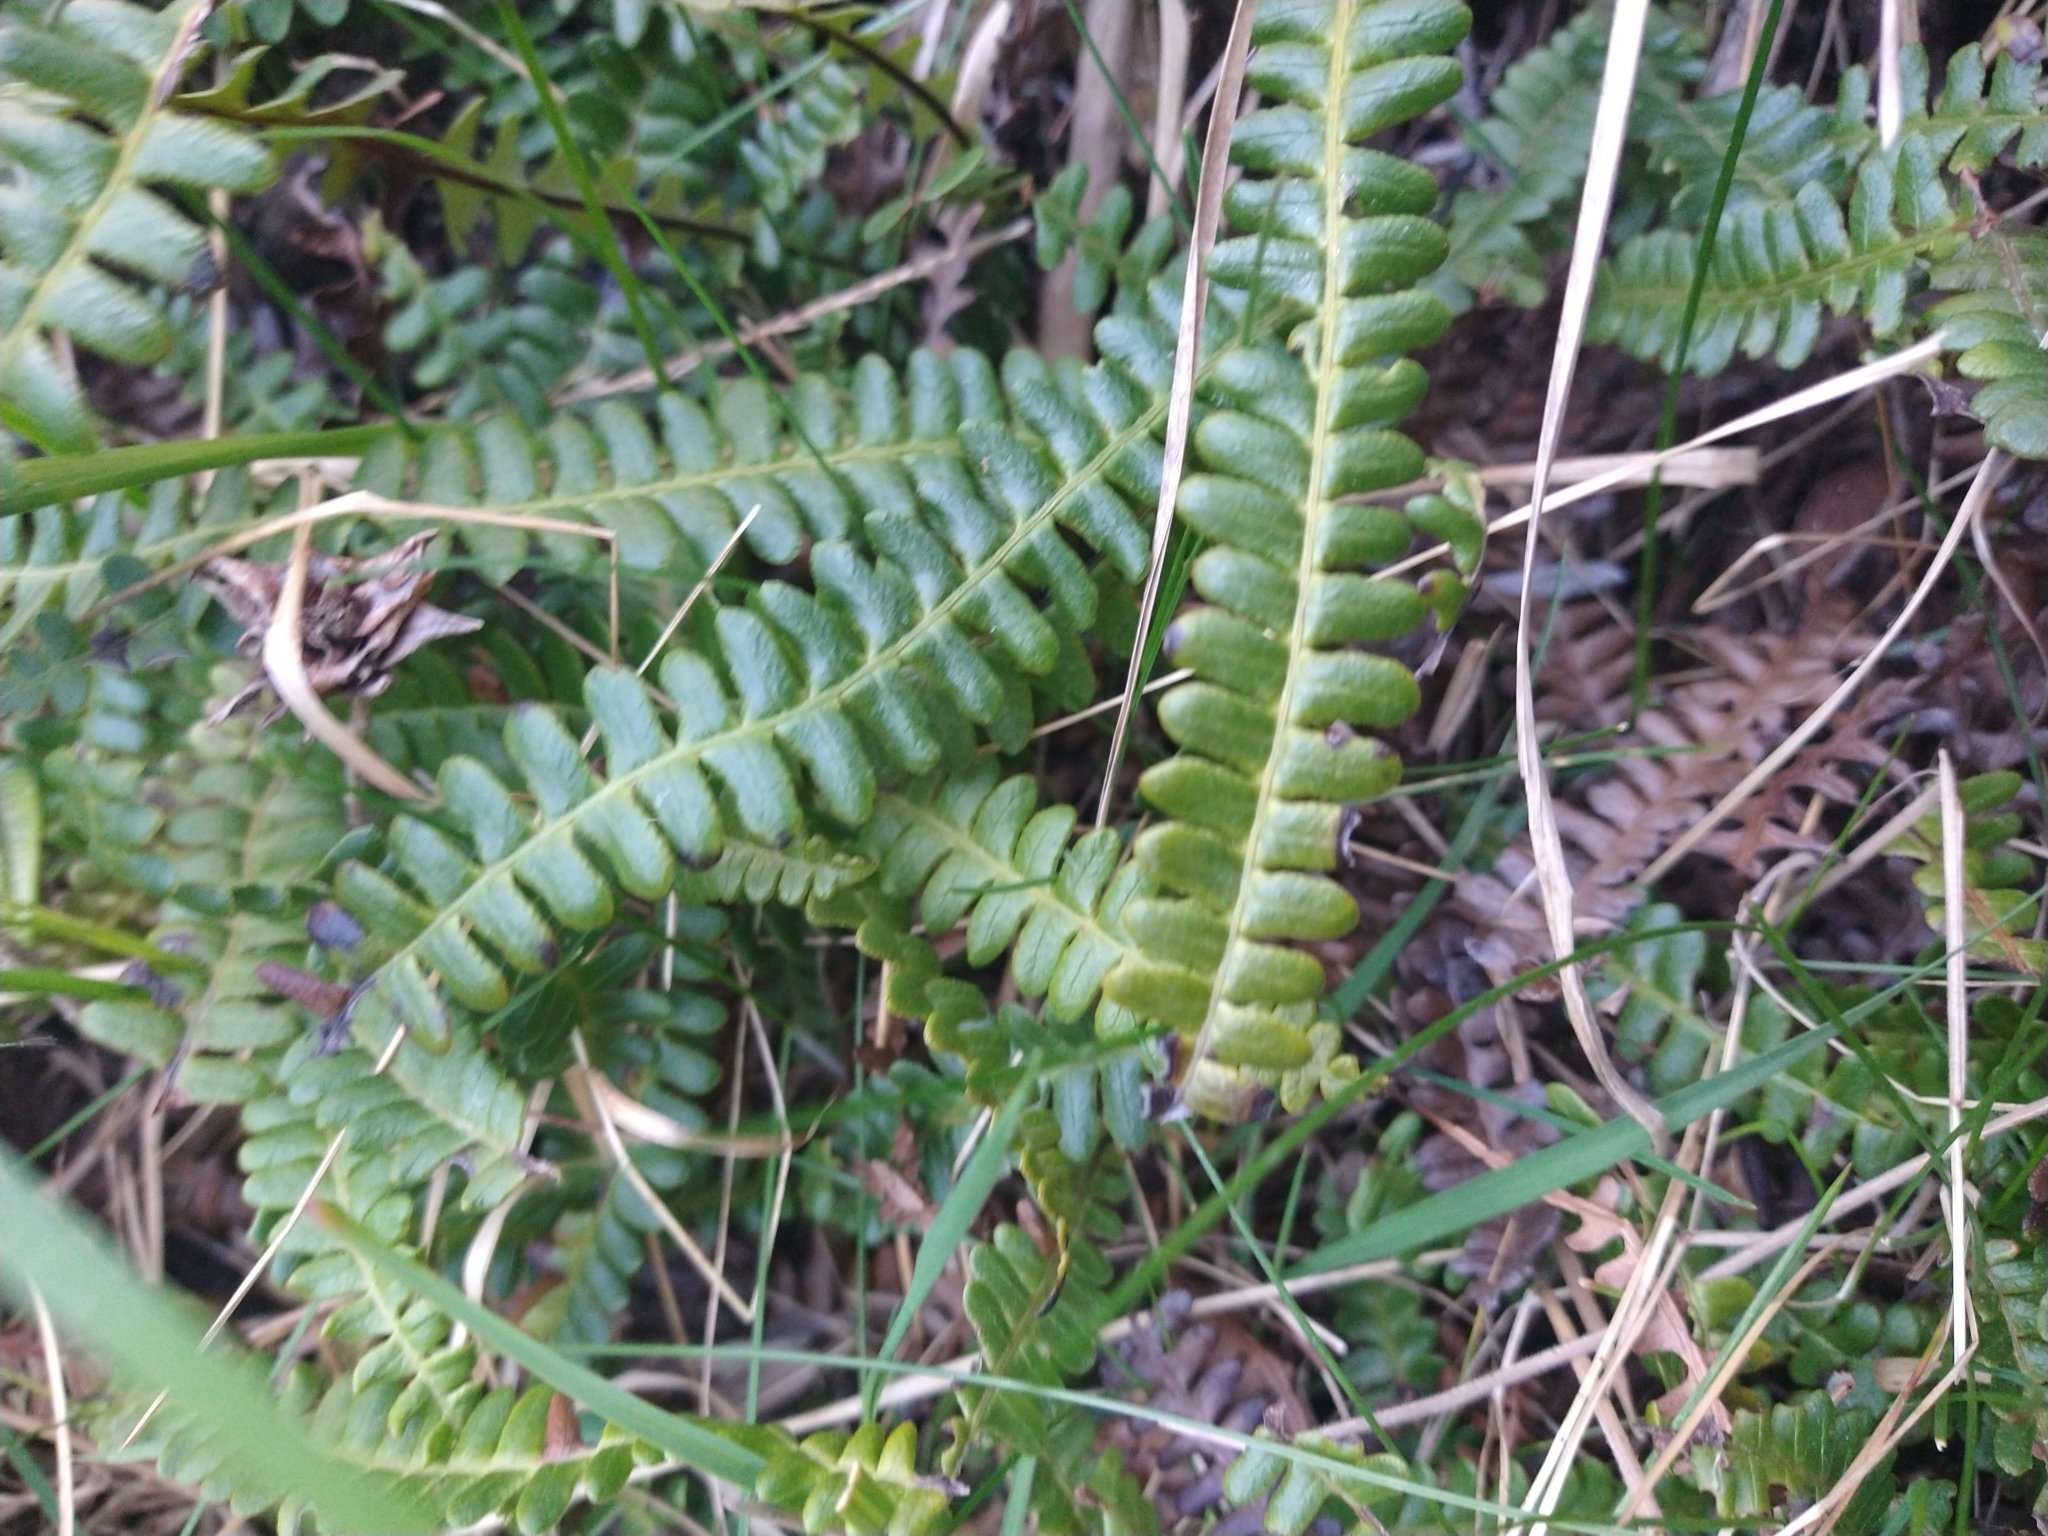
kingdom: Plantae
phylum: Tracheophyta
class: Polypodiopsida
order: Polypodiales
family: Blechnaceae
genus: Austroblechnum
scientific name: Austroblechnum penna-marina
